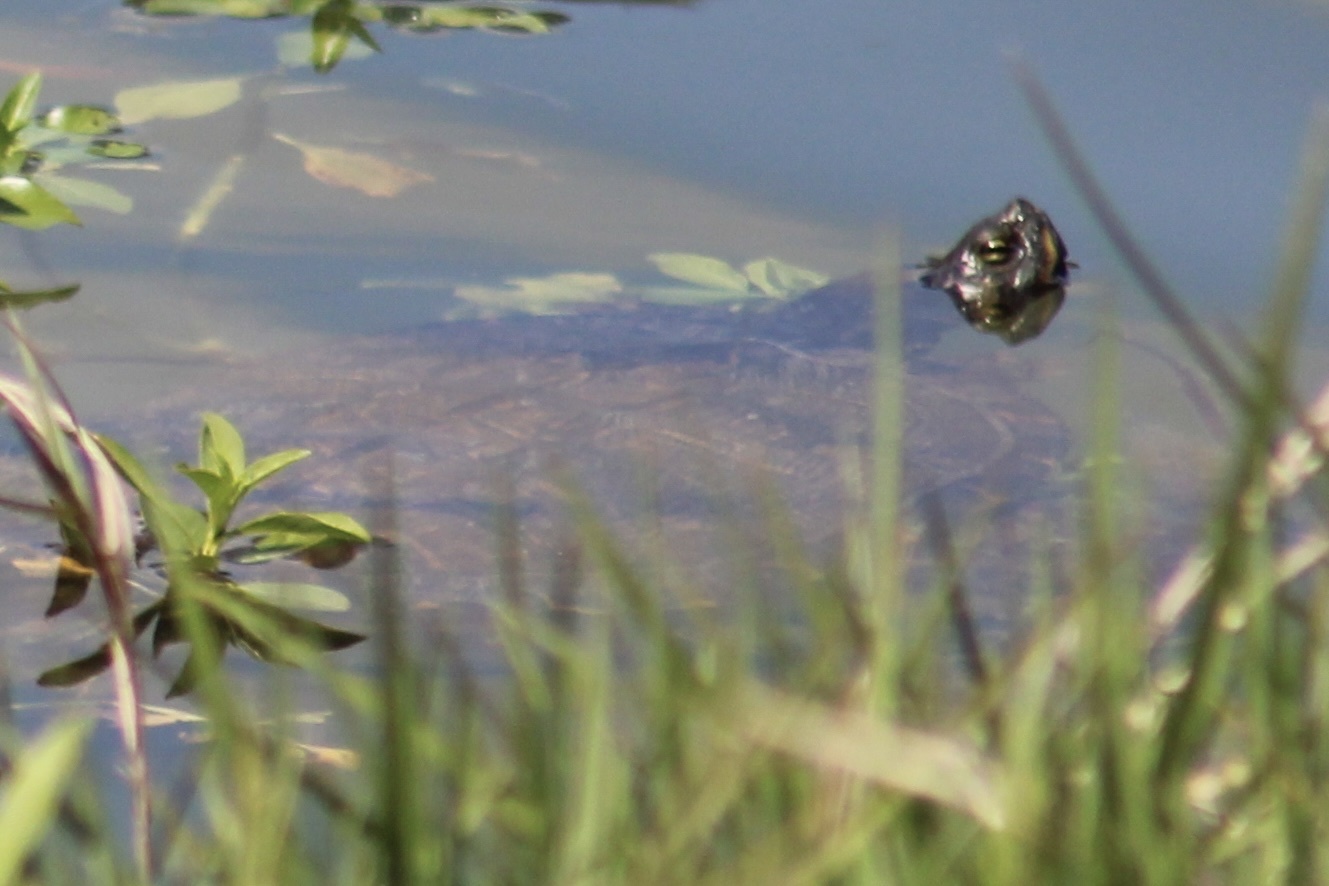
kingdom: Animalia
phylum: Chordata
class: Testudines
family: Emydidae
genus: Trachemys
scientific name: Trachemys scripta
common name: Slider
